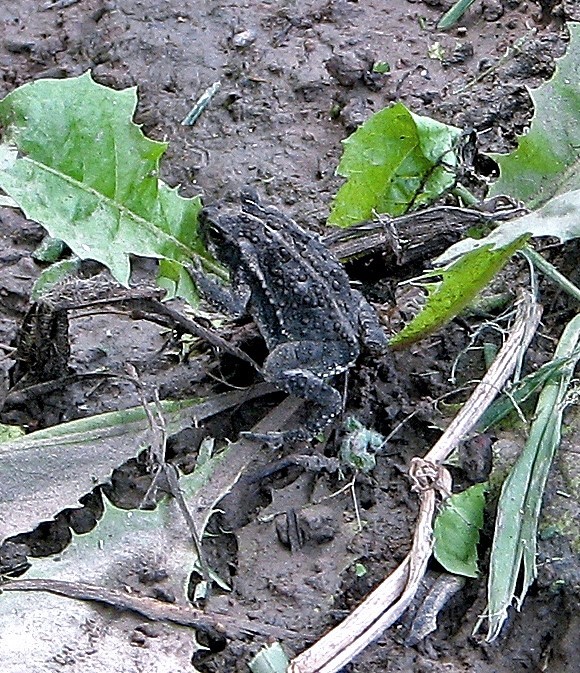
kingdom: Animalia
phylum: Chordata
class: Amphibia
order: Anura
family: Bufonidae
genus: Rhinella
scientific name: Rhinella dorbignyi
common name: D´orbigny’s toad
